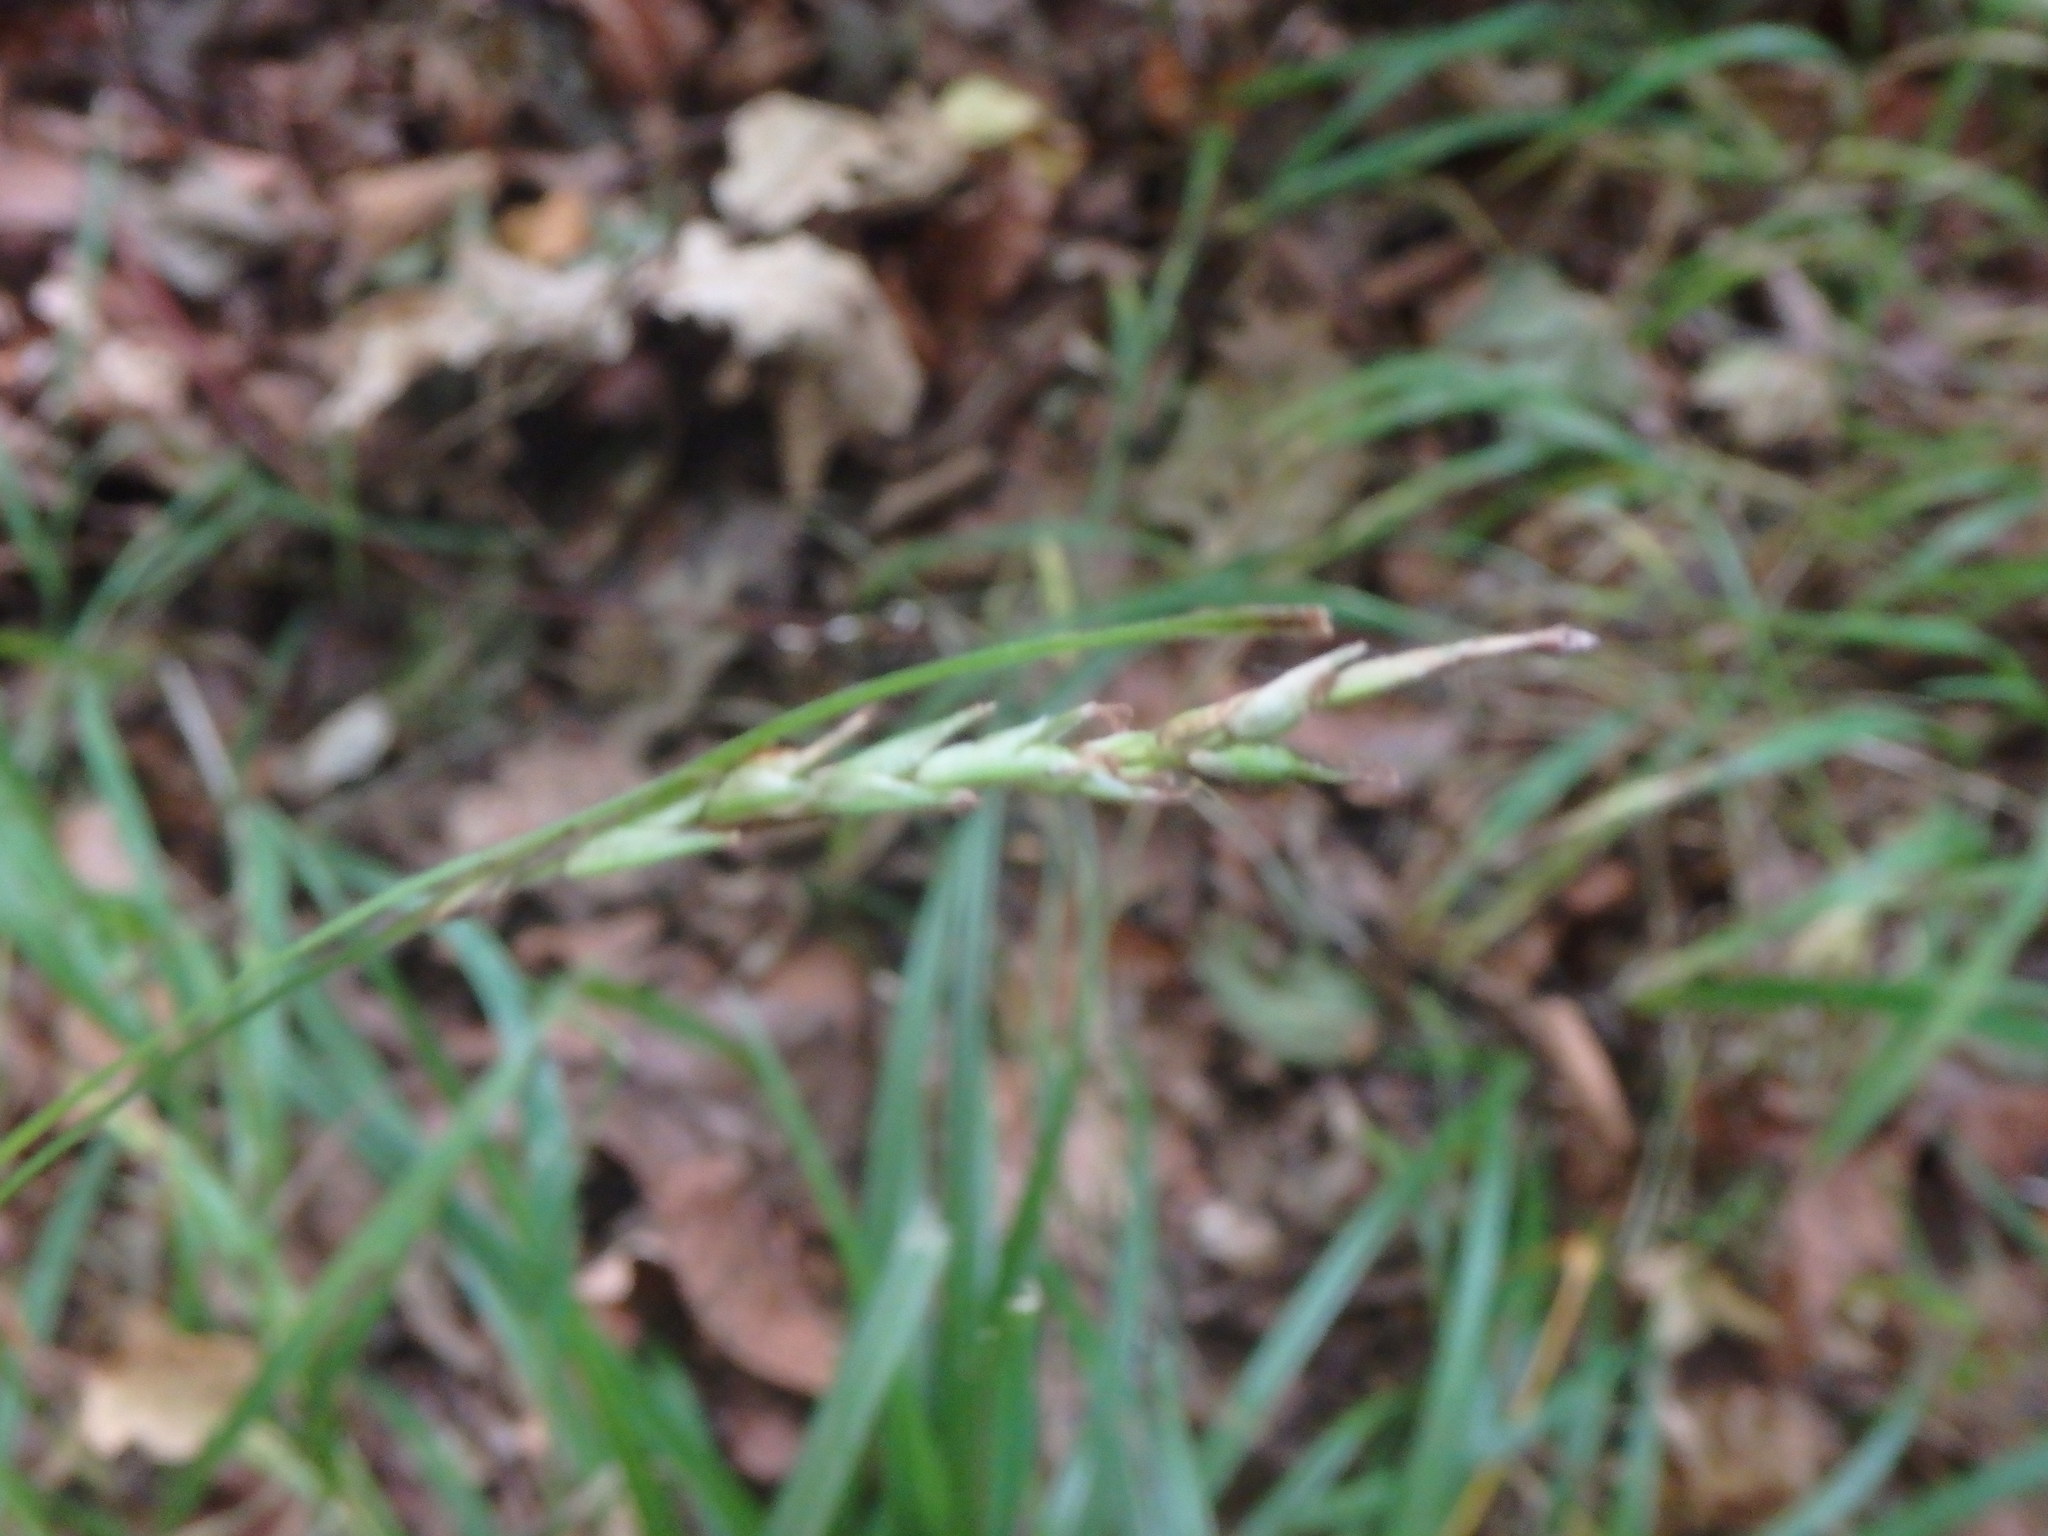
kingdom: Plantae
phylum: Tracheophyta
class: Liliopsida
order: Poales
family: Cyperaceae
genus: Carex
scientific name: Carex sylvatica
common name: Wood-sedge
